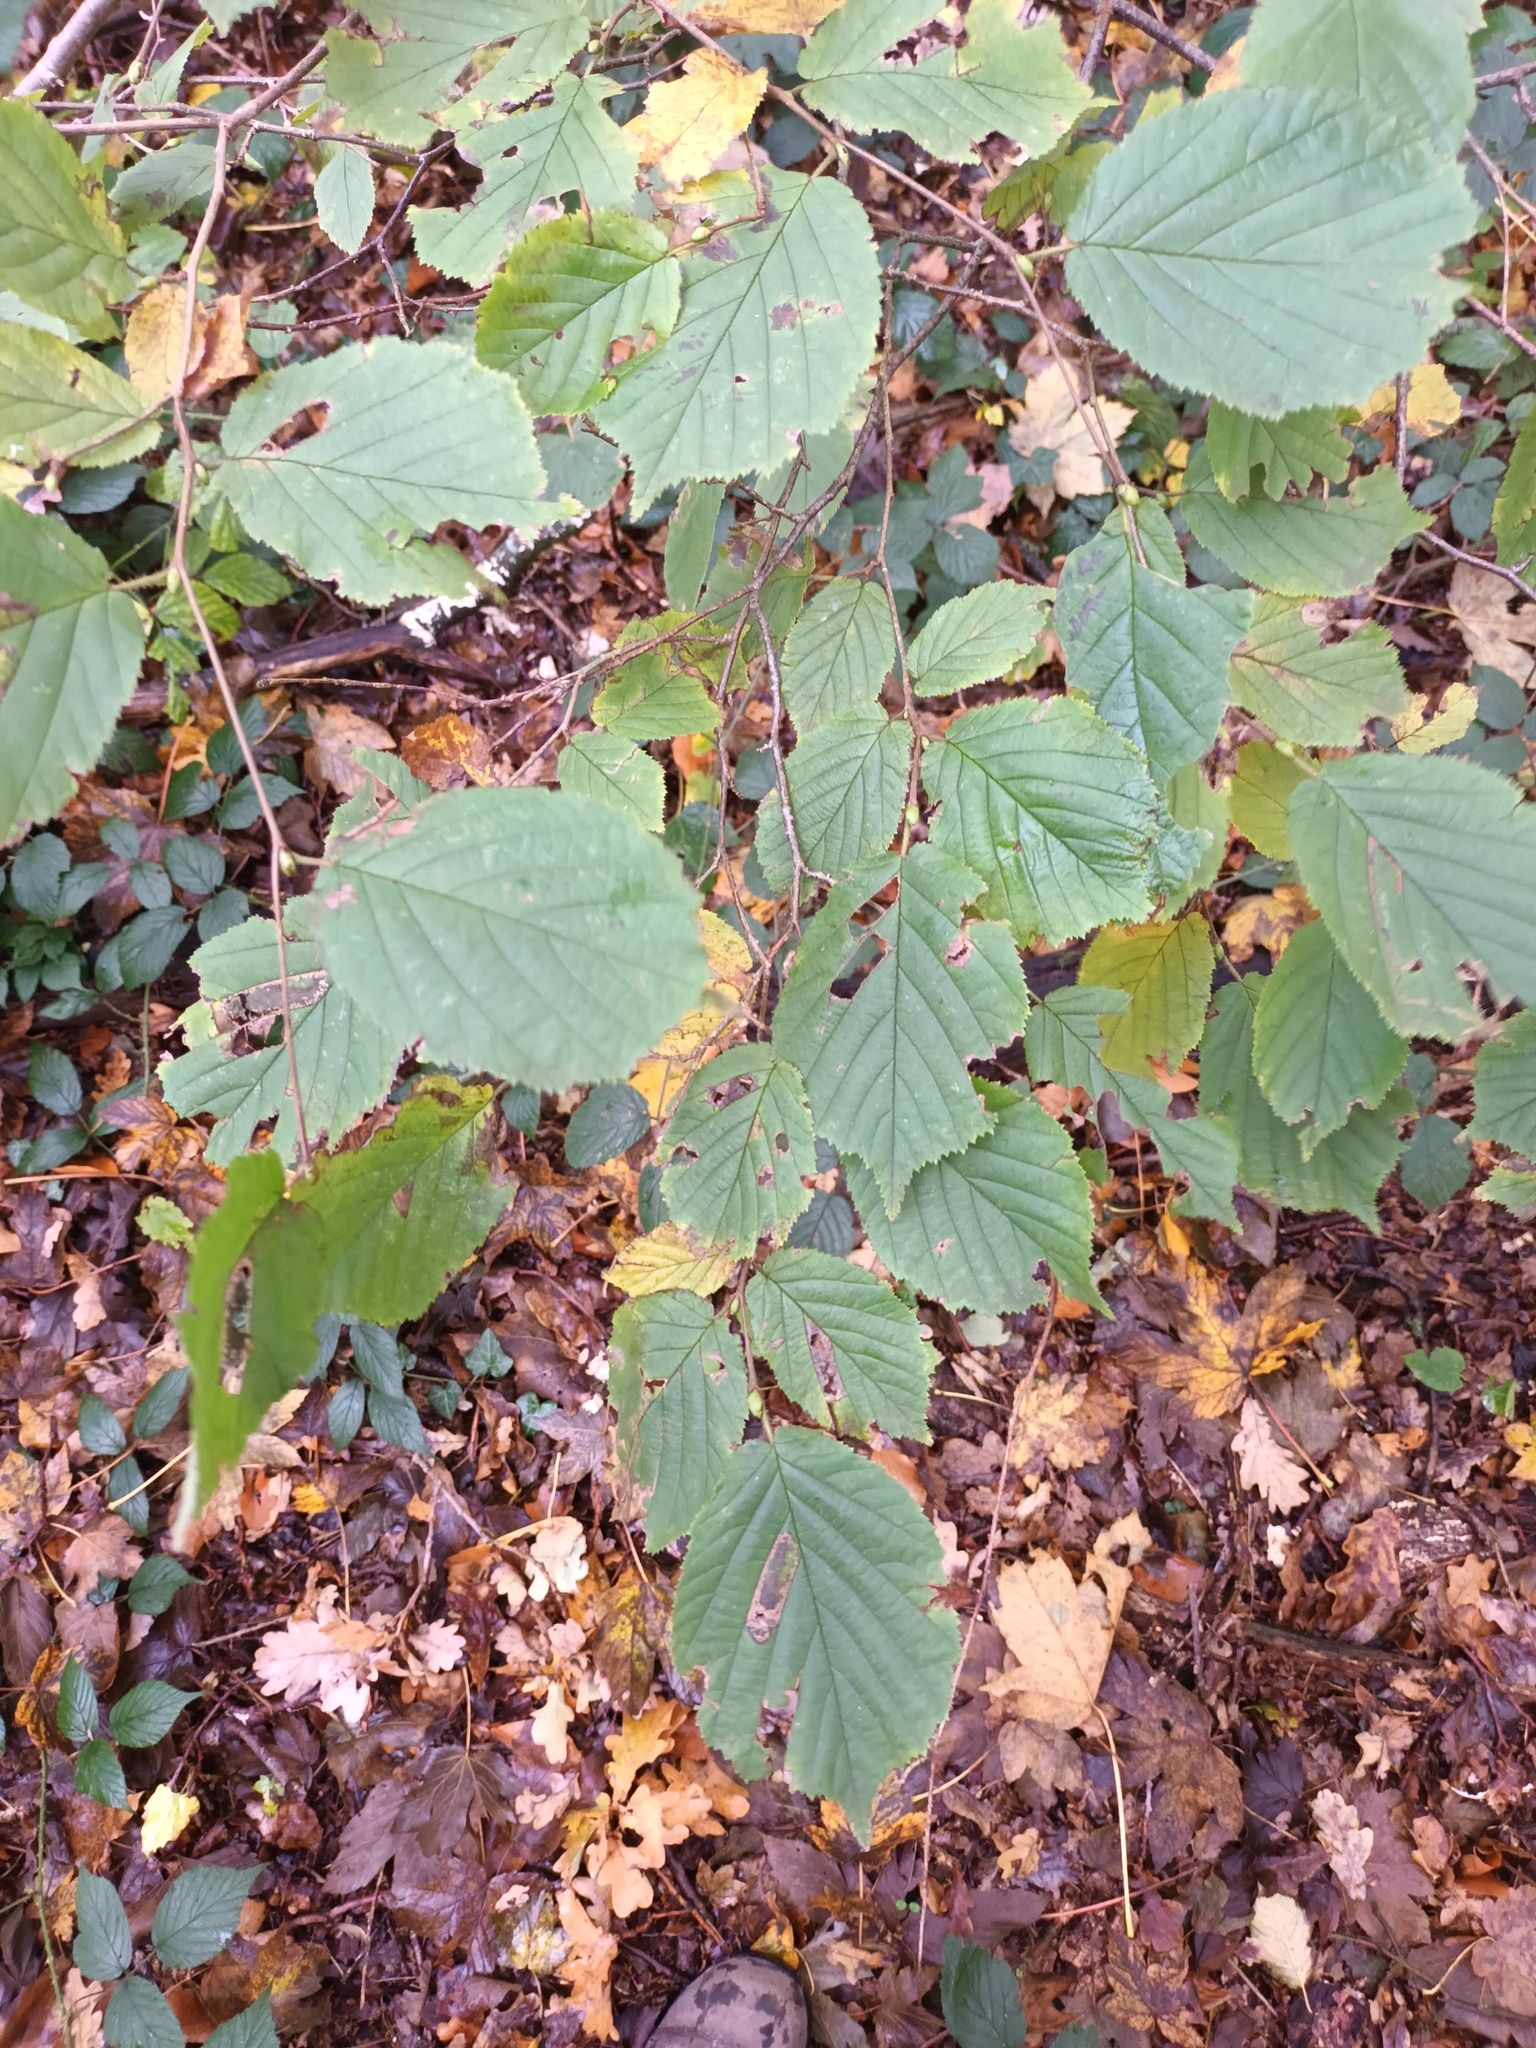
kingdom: Plantae
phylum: Tracheophyta
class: Magnoliopsida
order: Fagales
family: Betulaceae
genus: Corylus
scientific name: Corylus avellana
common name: European hazel
